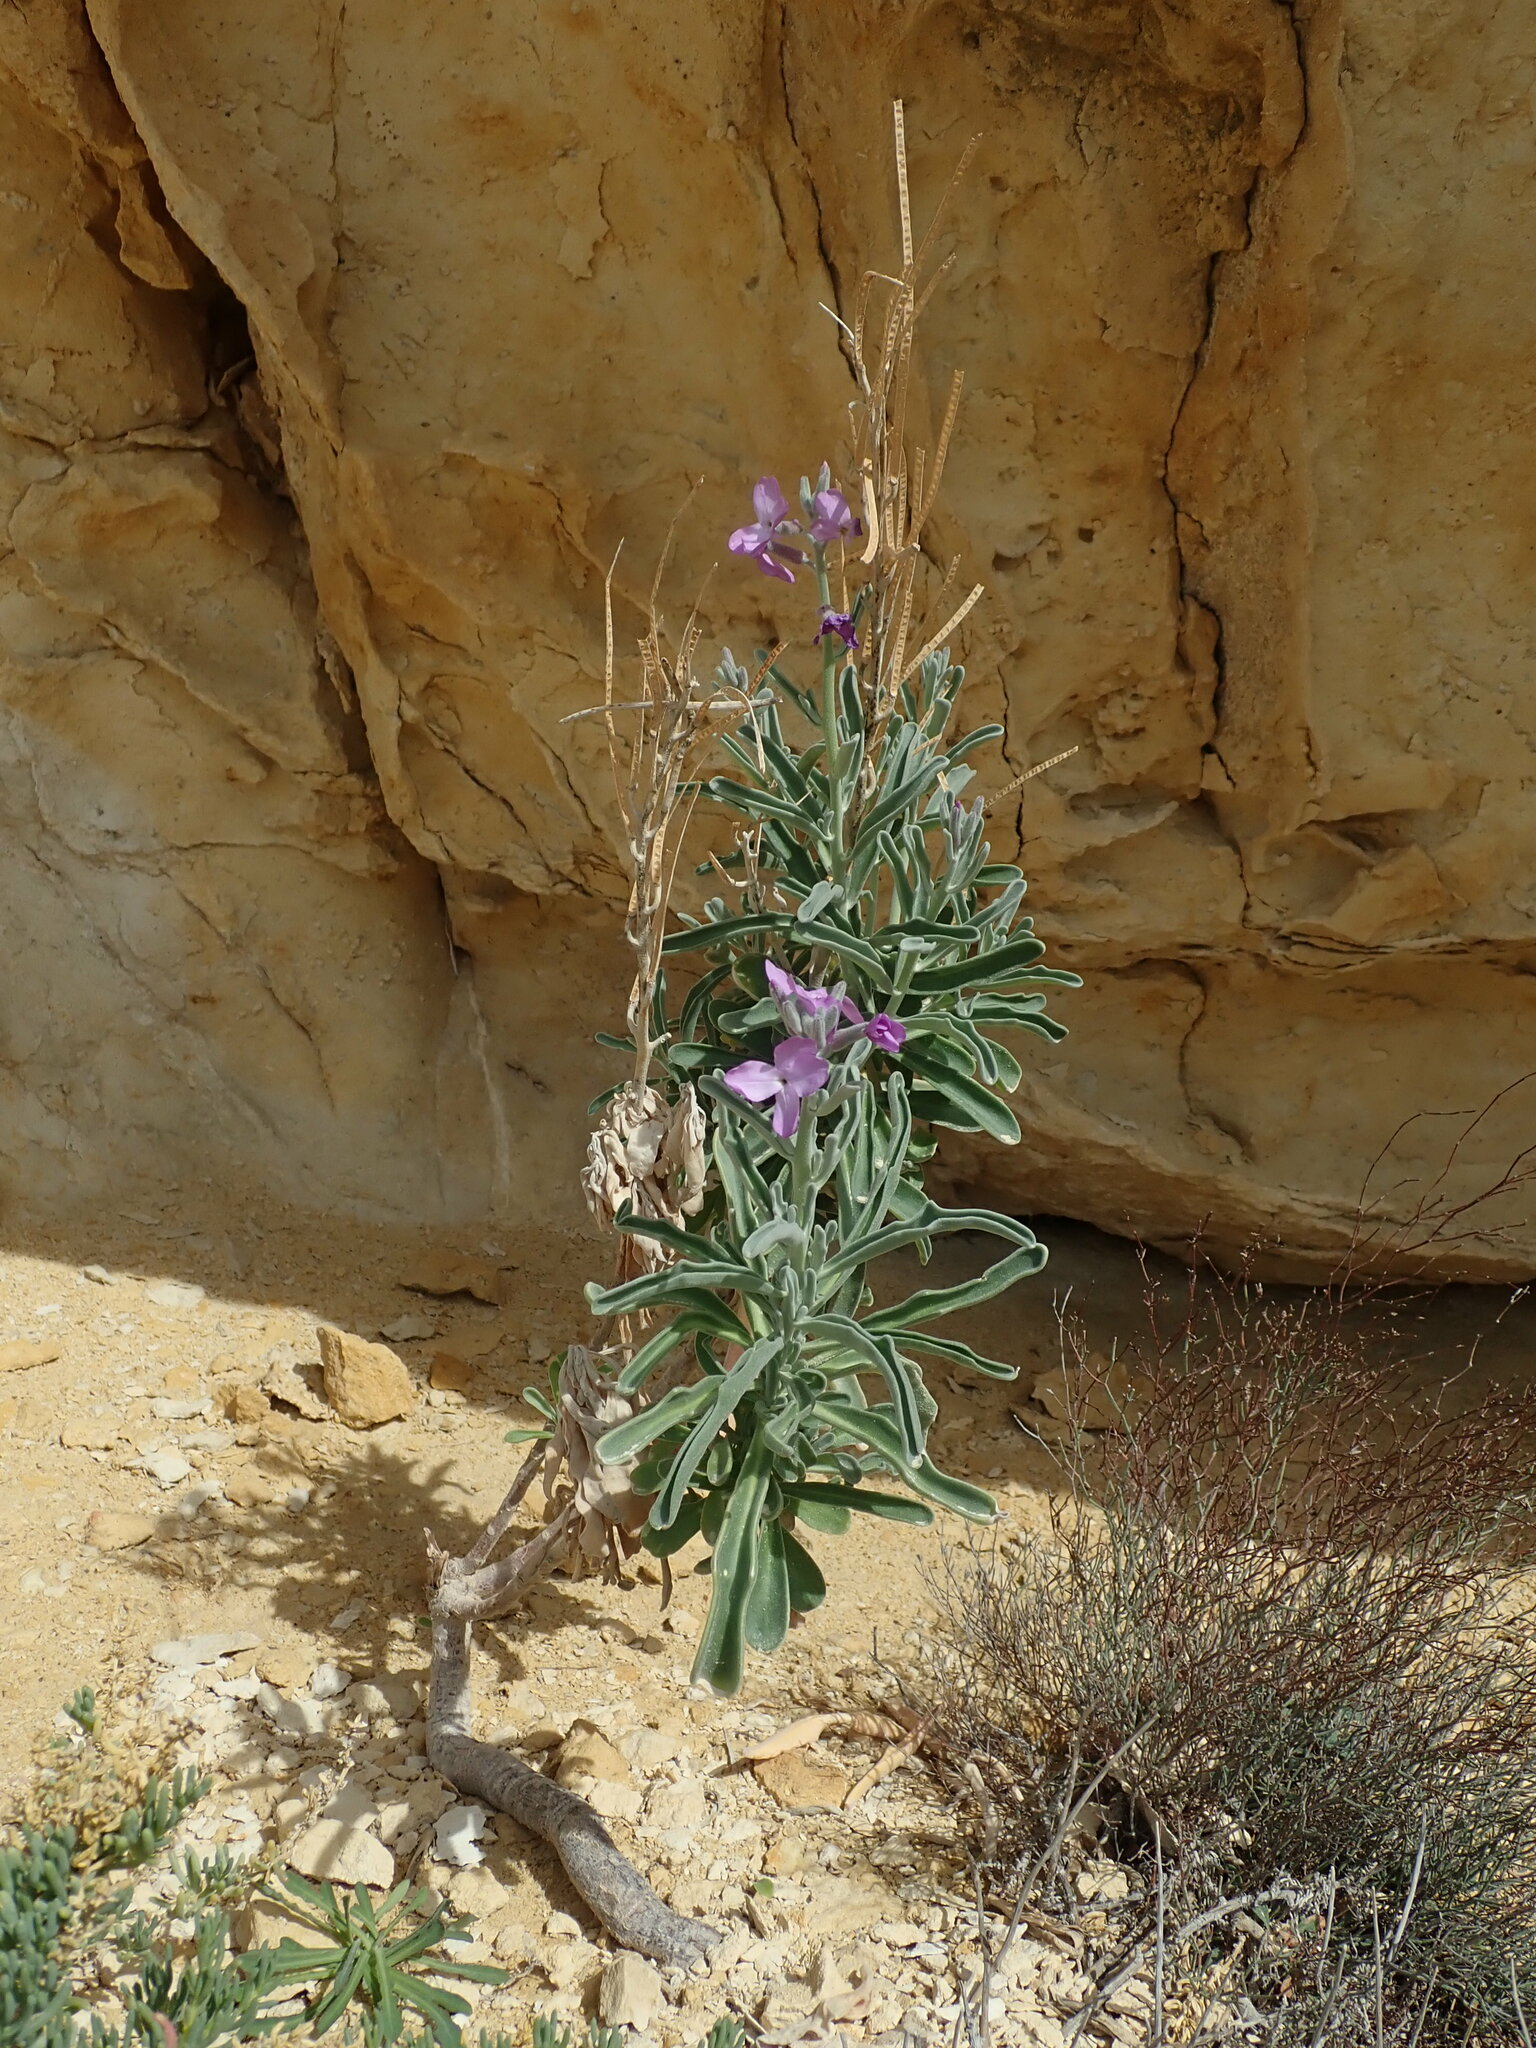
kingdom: Plantae
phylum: Tracheophyta
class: Magnoliopsida
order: Brassicales
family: Brassicaceae
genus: Matthiola
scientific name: Matthiola incana
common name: Hoary stock
